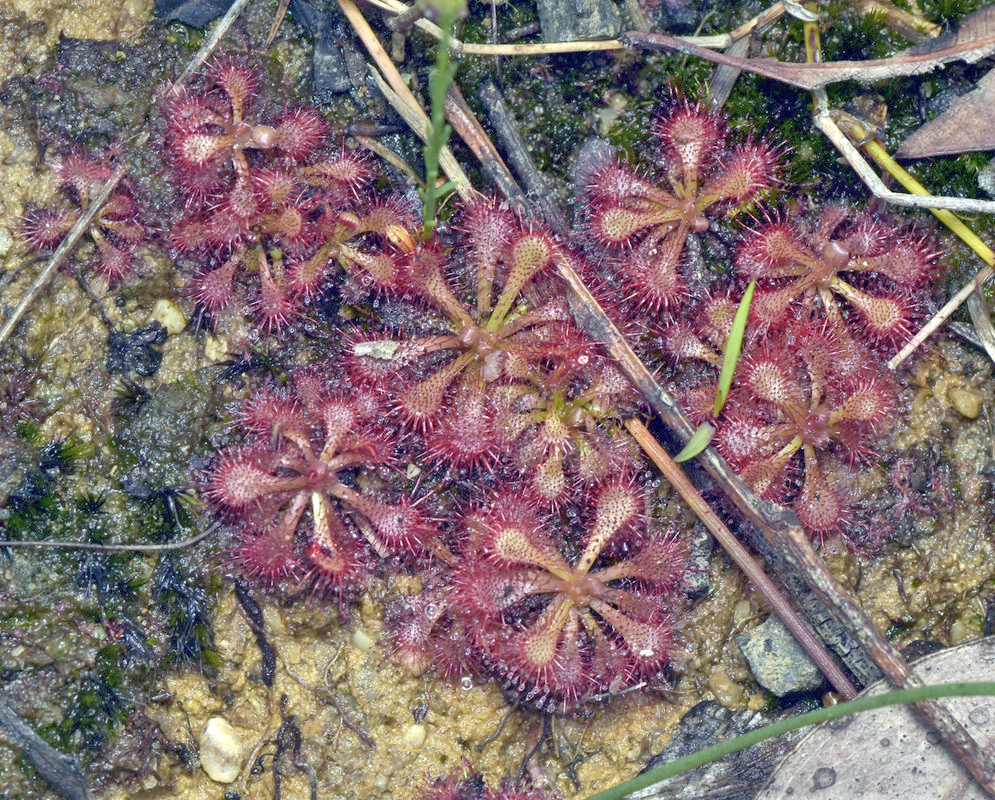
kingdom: Plantae
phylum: Tracheophyta
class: Magnoliopsida
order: Caryophyllales
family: Droseraceae
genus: Drosera
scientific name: Drosera spatulata
